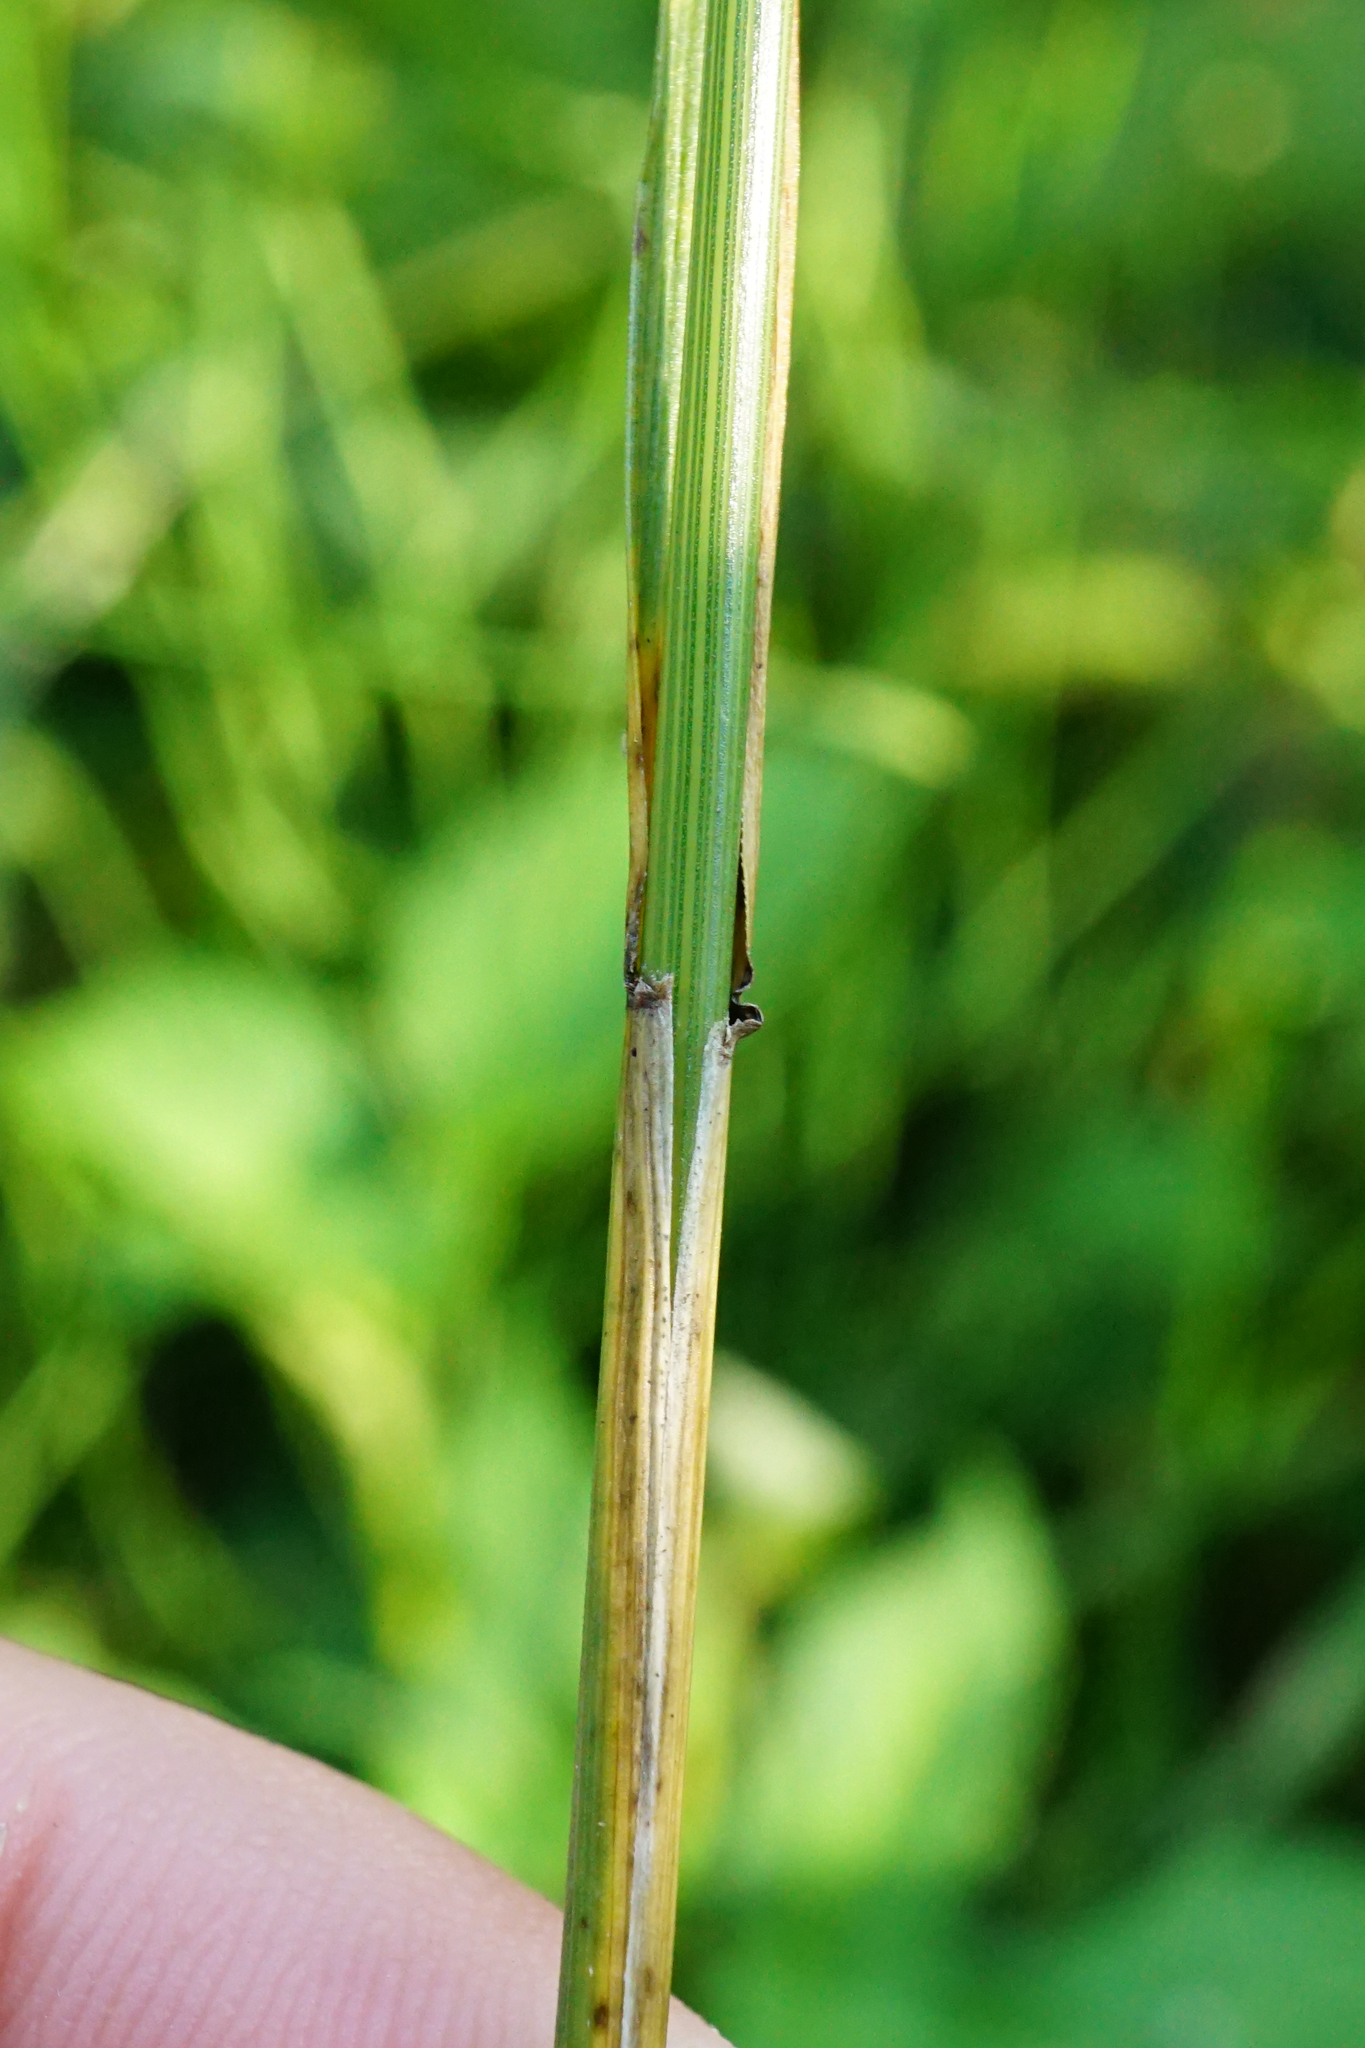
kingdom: Plantae
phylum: Tracheophyta
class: Liliopsida
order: Poales
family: Poaceae
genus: Lolium
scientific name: Lolium arundinaceum
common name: Reed fescue
